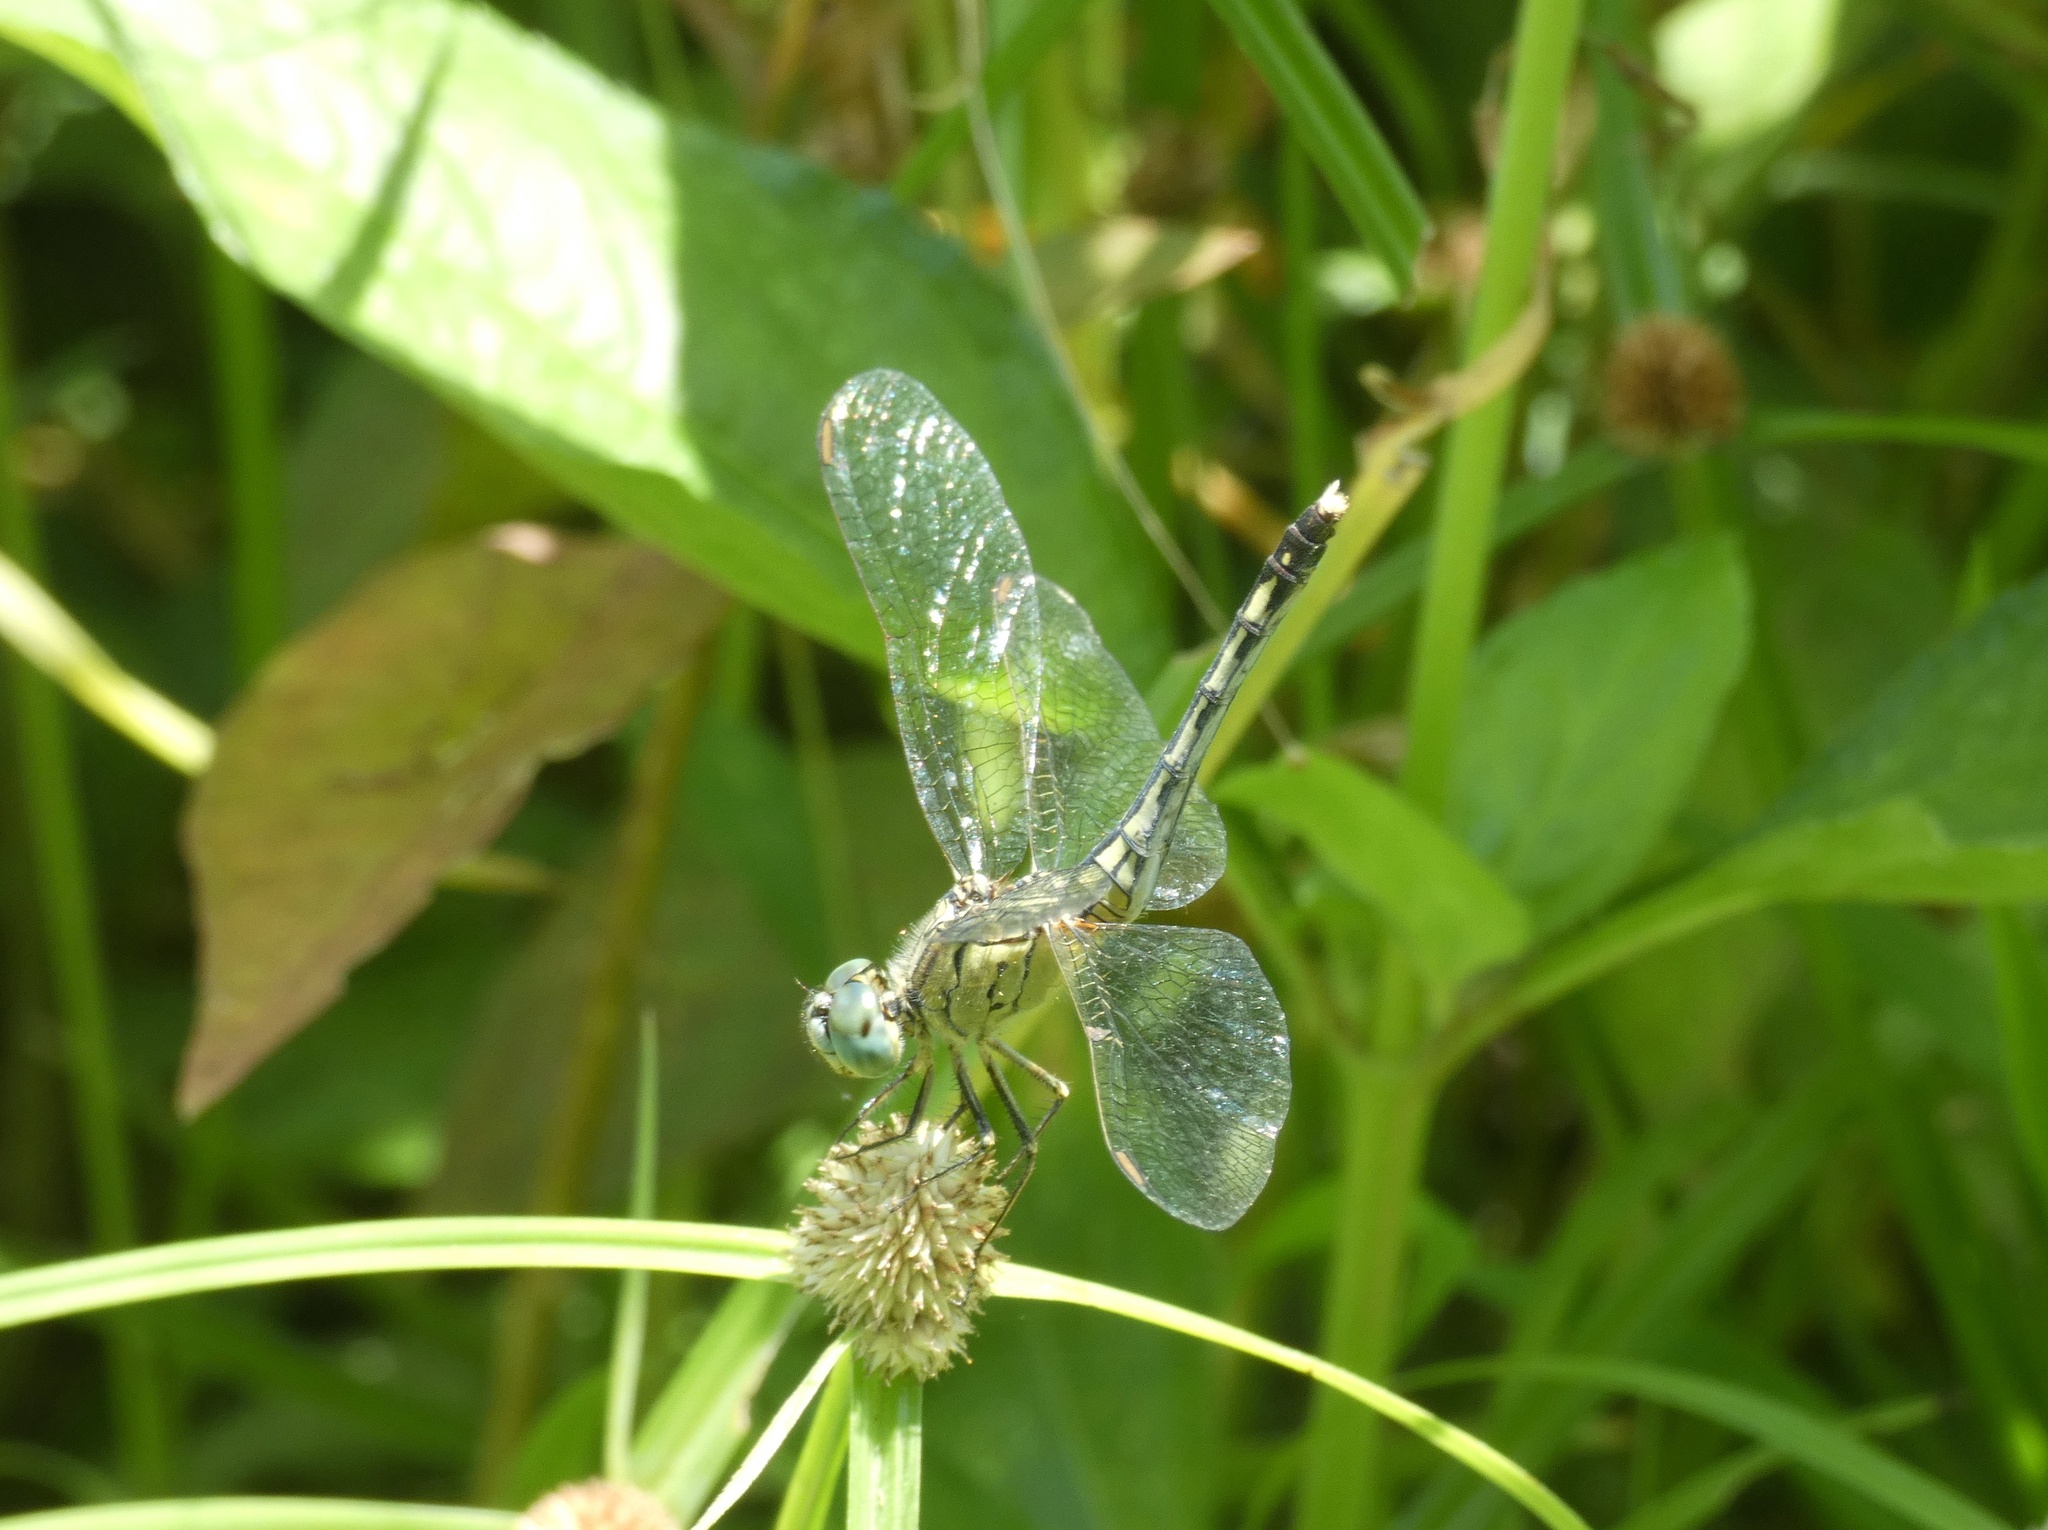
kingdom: Animalia
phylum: Arthropoda
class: Insecta
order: Odonata
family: Libellulidae
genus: Diplacodes
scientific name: Diplacodes trivialis
